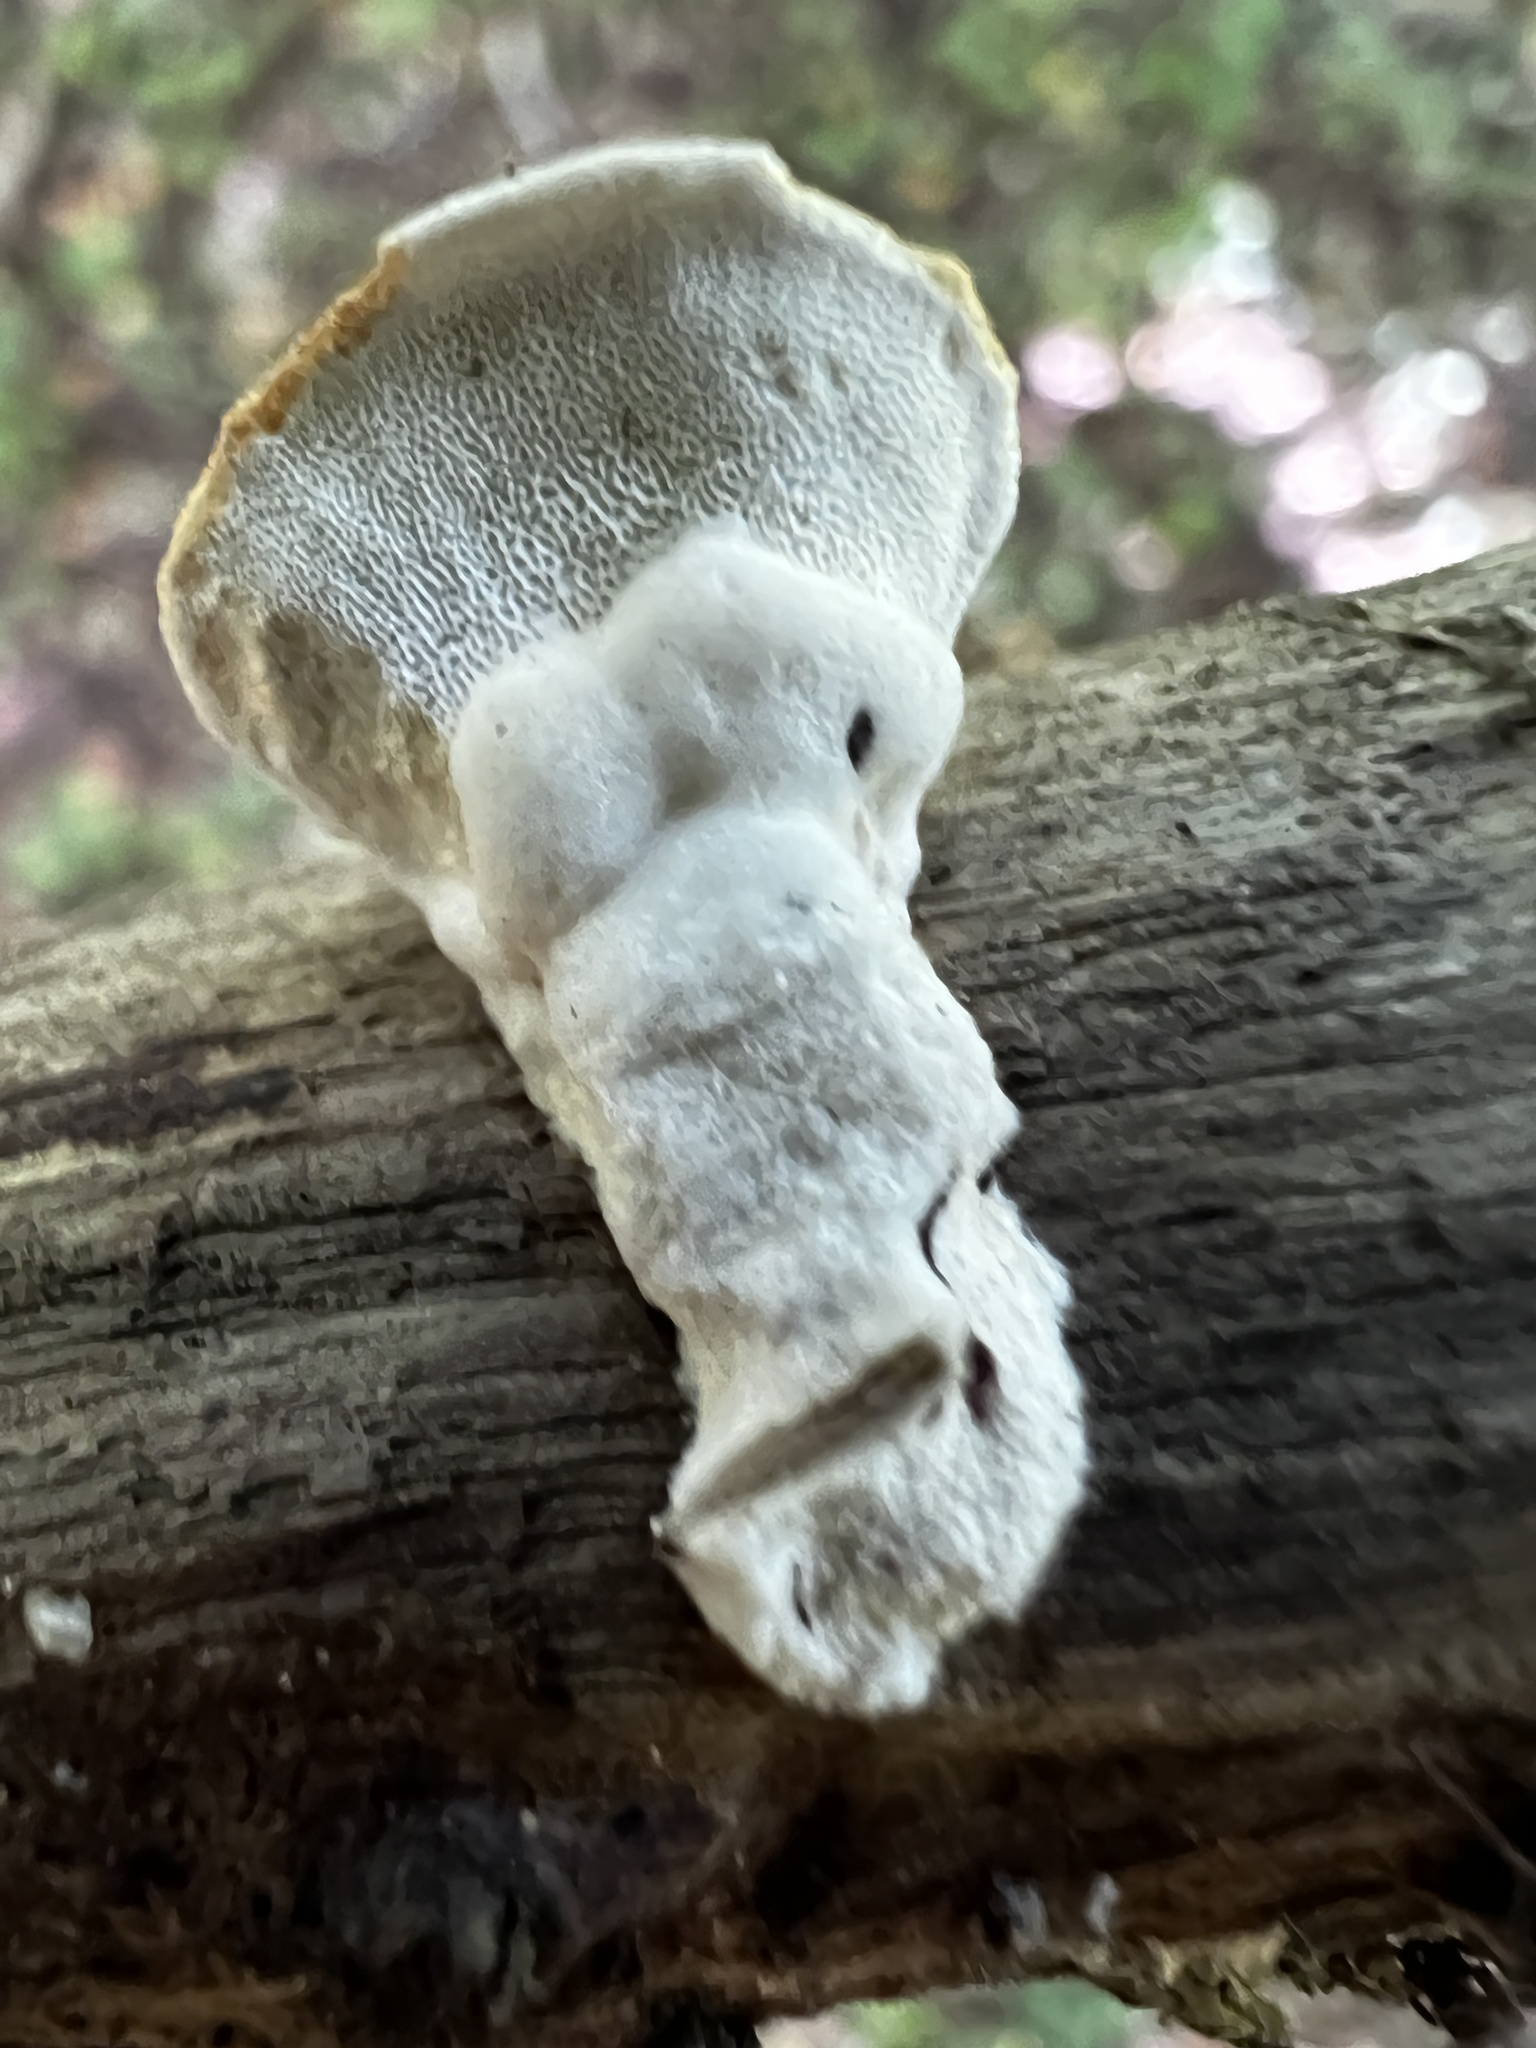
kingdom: Fungi
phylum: Basidiomycota
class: Agaricomycetes
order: Polyporales
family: Steccherinaceae
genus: Loweomyces
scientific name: Loweomyces fractipes
